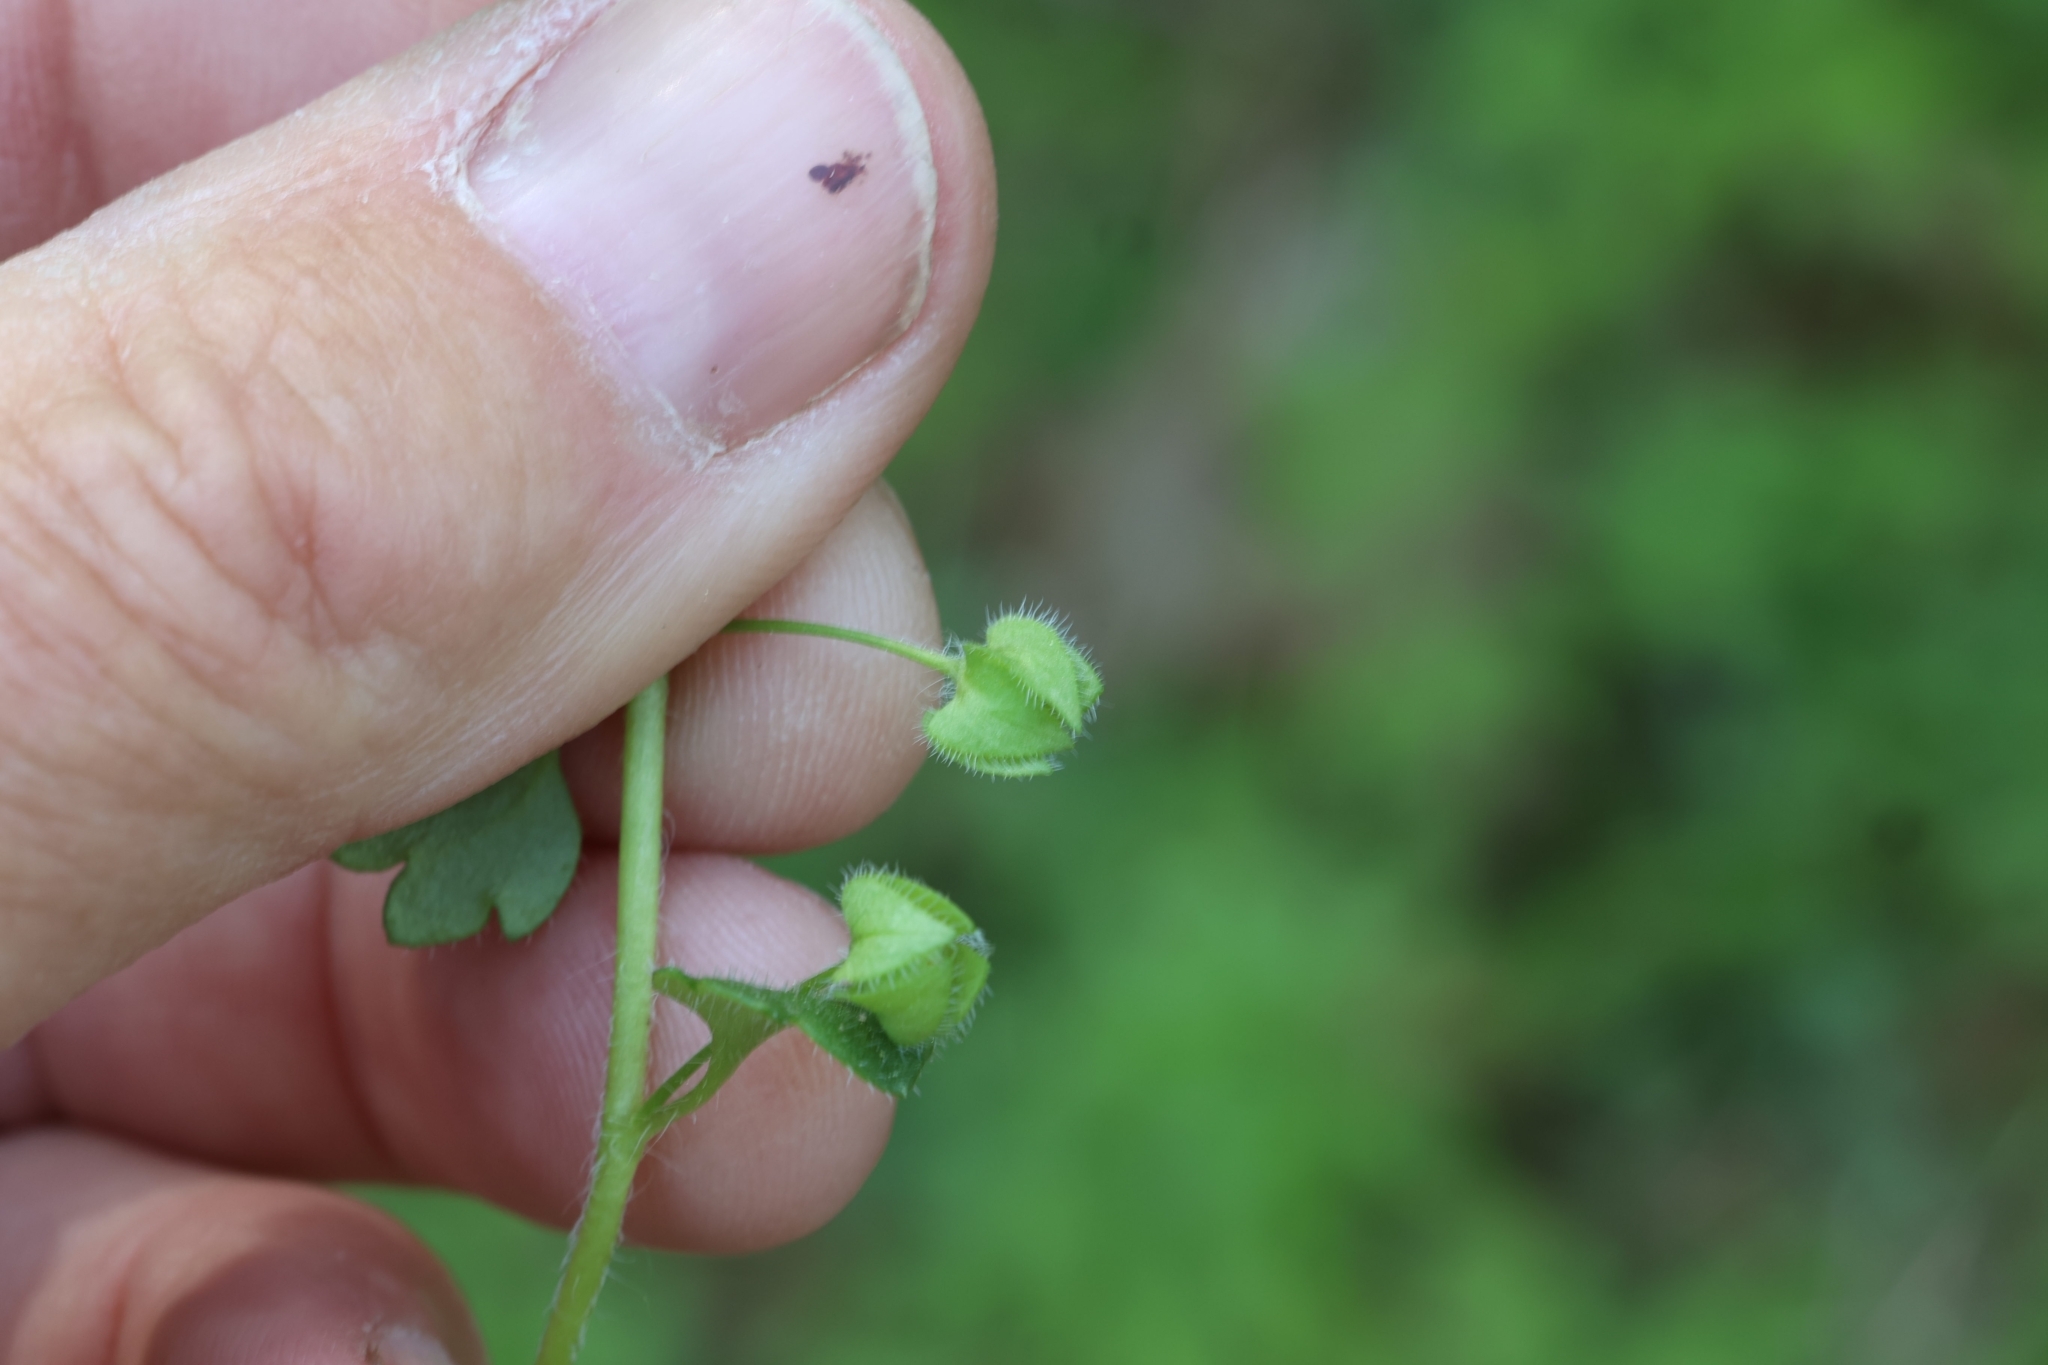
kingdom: Plantae
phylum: Tracheophyta
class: Magnoliopsida
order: Lamiales
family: Plantaginaceae
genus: Veronica
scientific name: Veronica hederifolia
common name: Ivy-leaved speedwell
